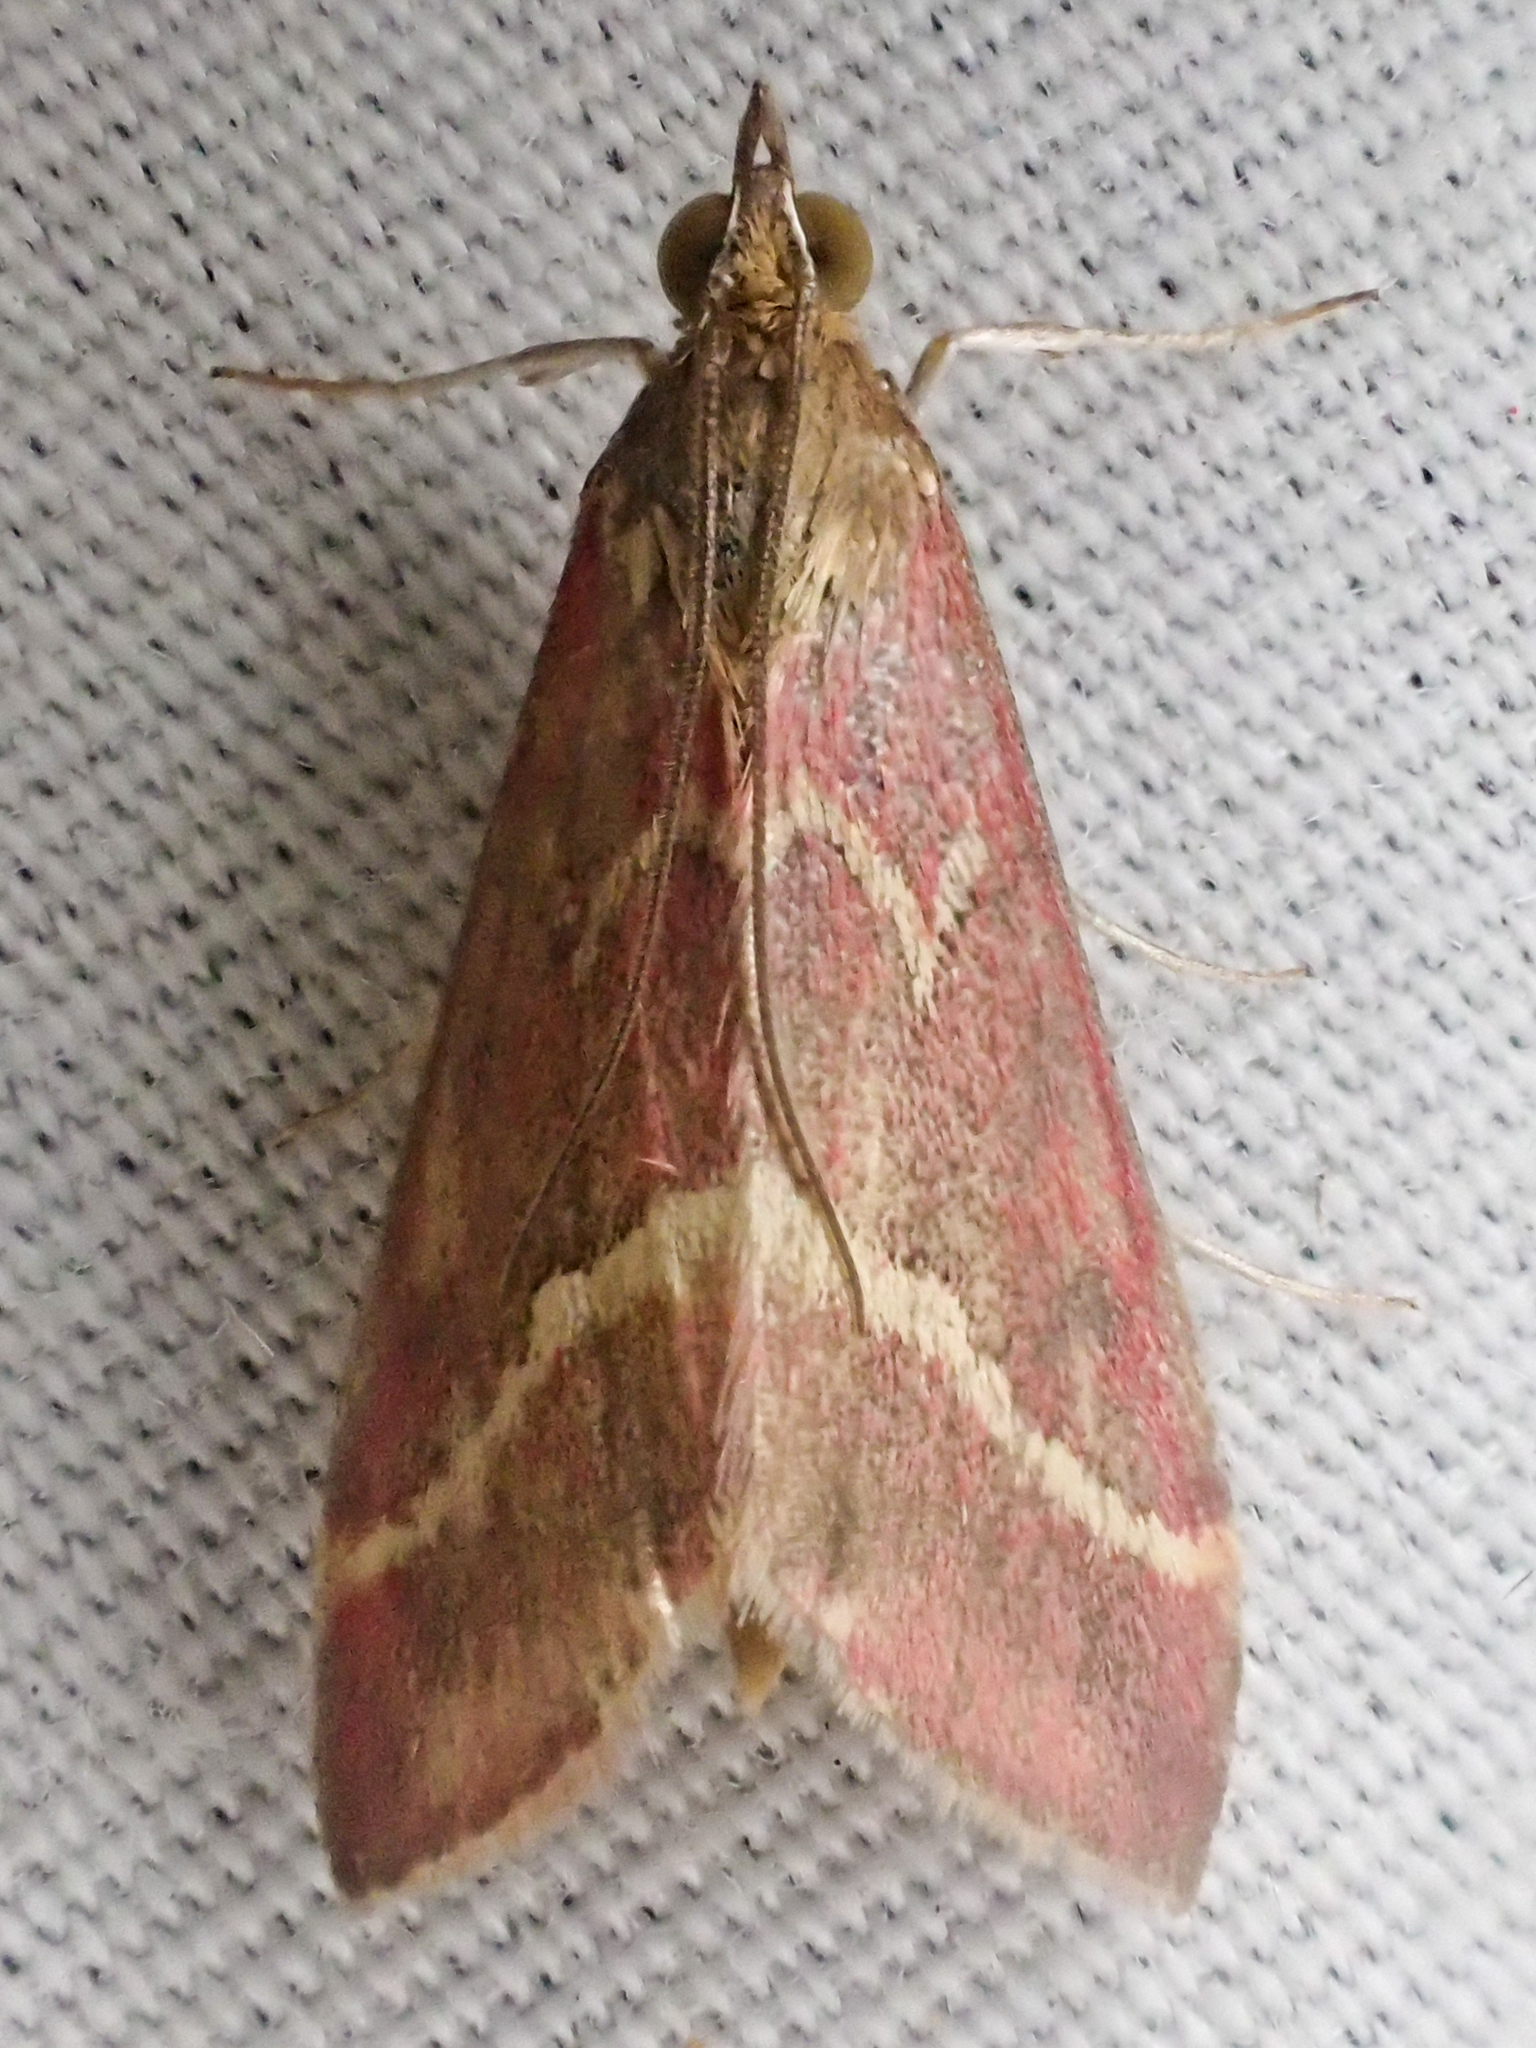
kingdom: Animalia
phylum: Arthropoda
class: Insecta
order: Lepidoptera
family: Crambidae
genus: Pyrausta
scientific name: Pyrausta volupialis
